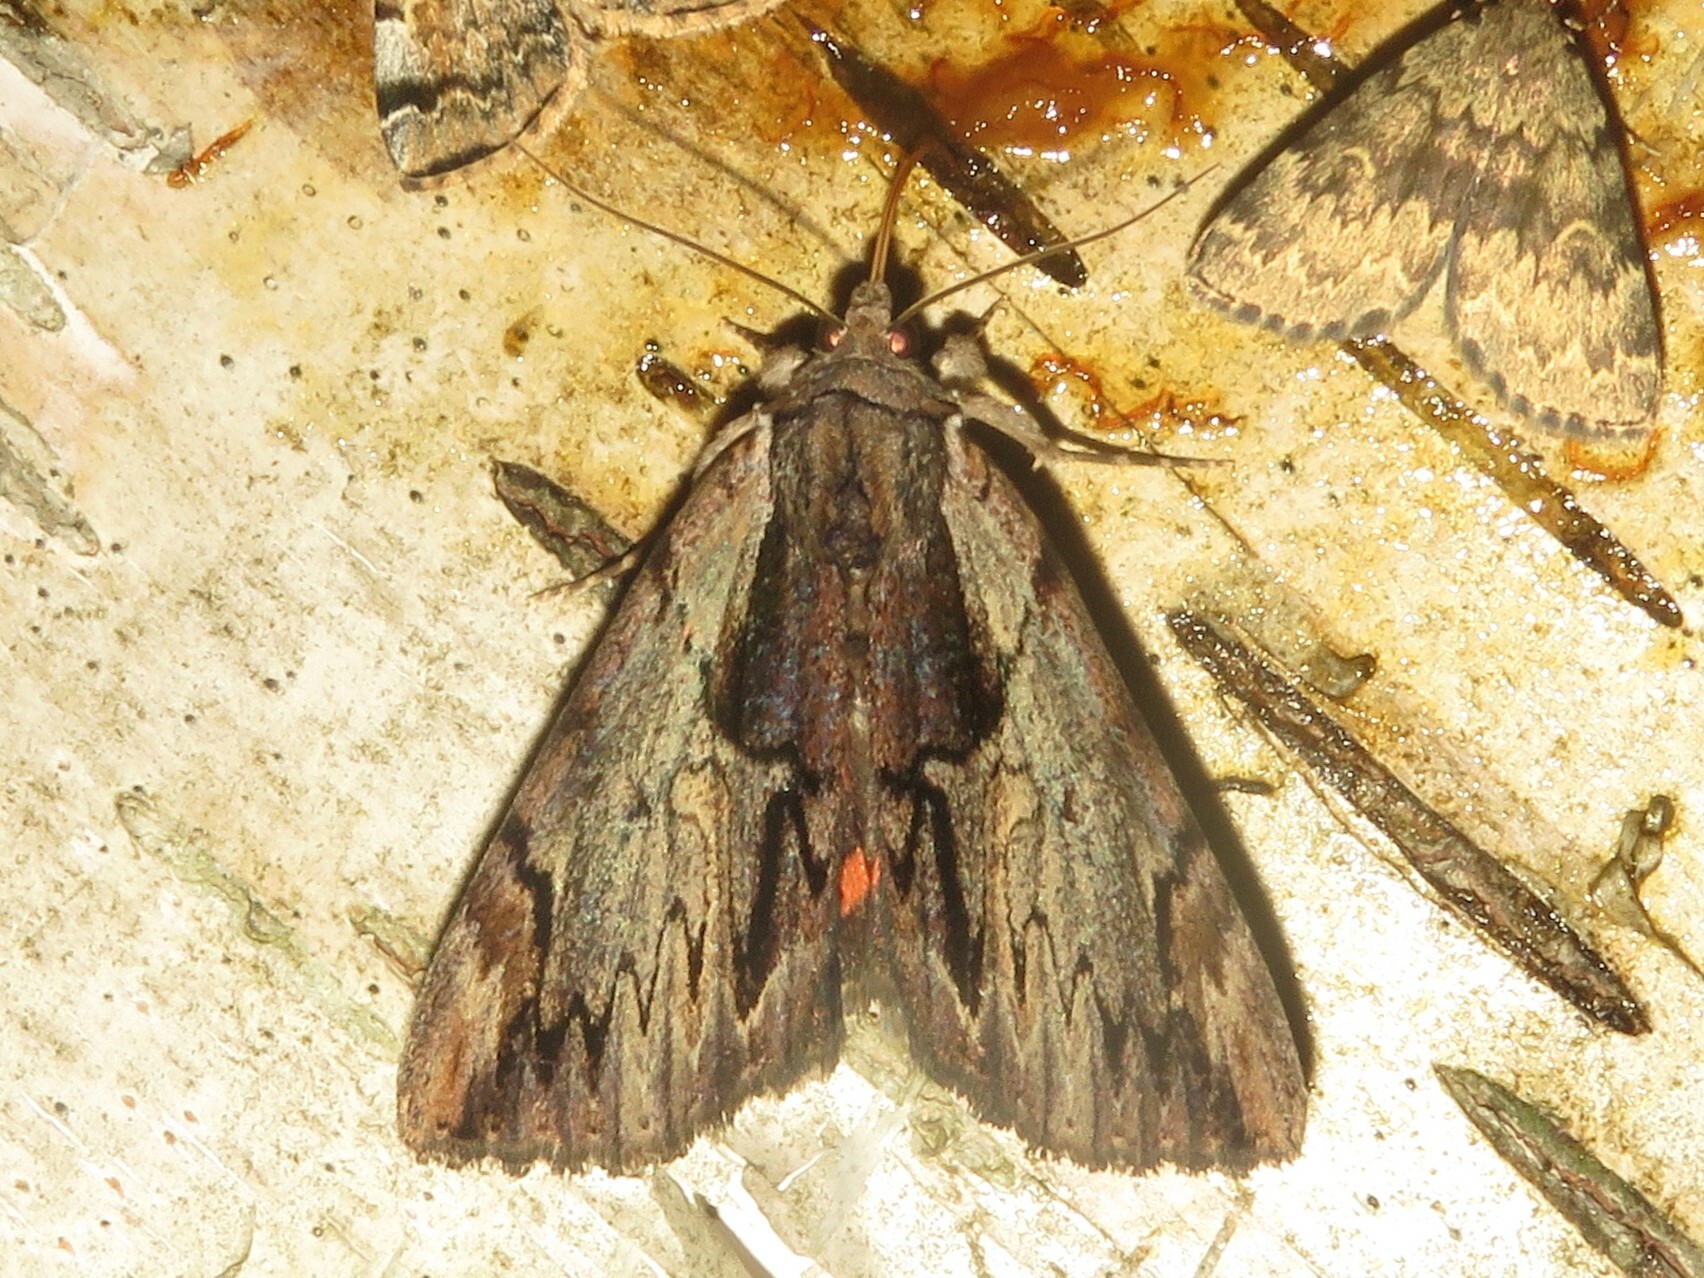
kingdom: Animalia
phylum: Arthropoda
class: Insecta
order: Lepidoptera
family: Erebidae
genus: Catocala
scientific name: Catocala ultronia
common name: Ultronia underwing
